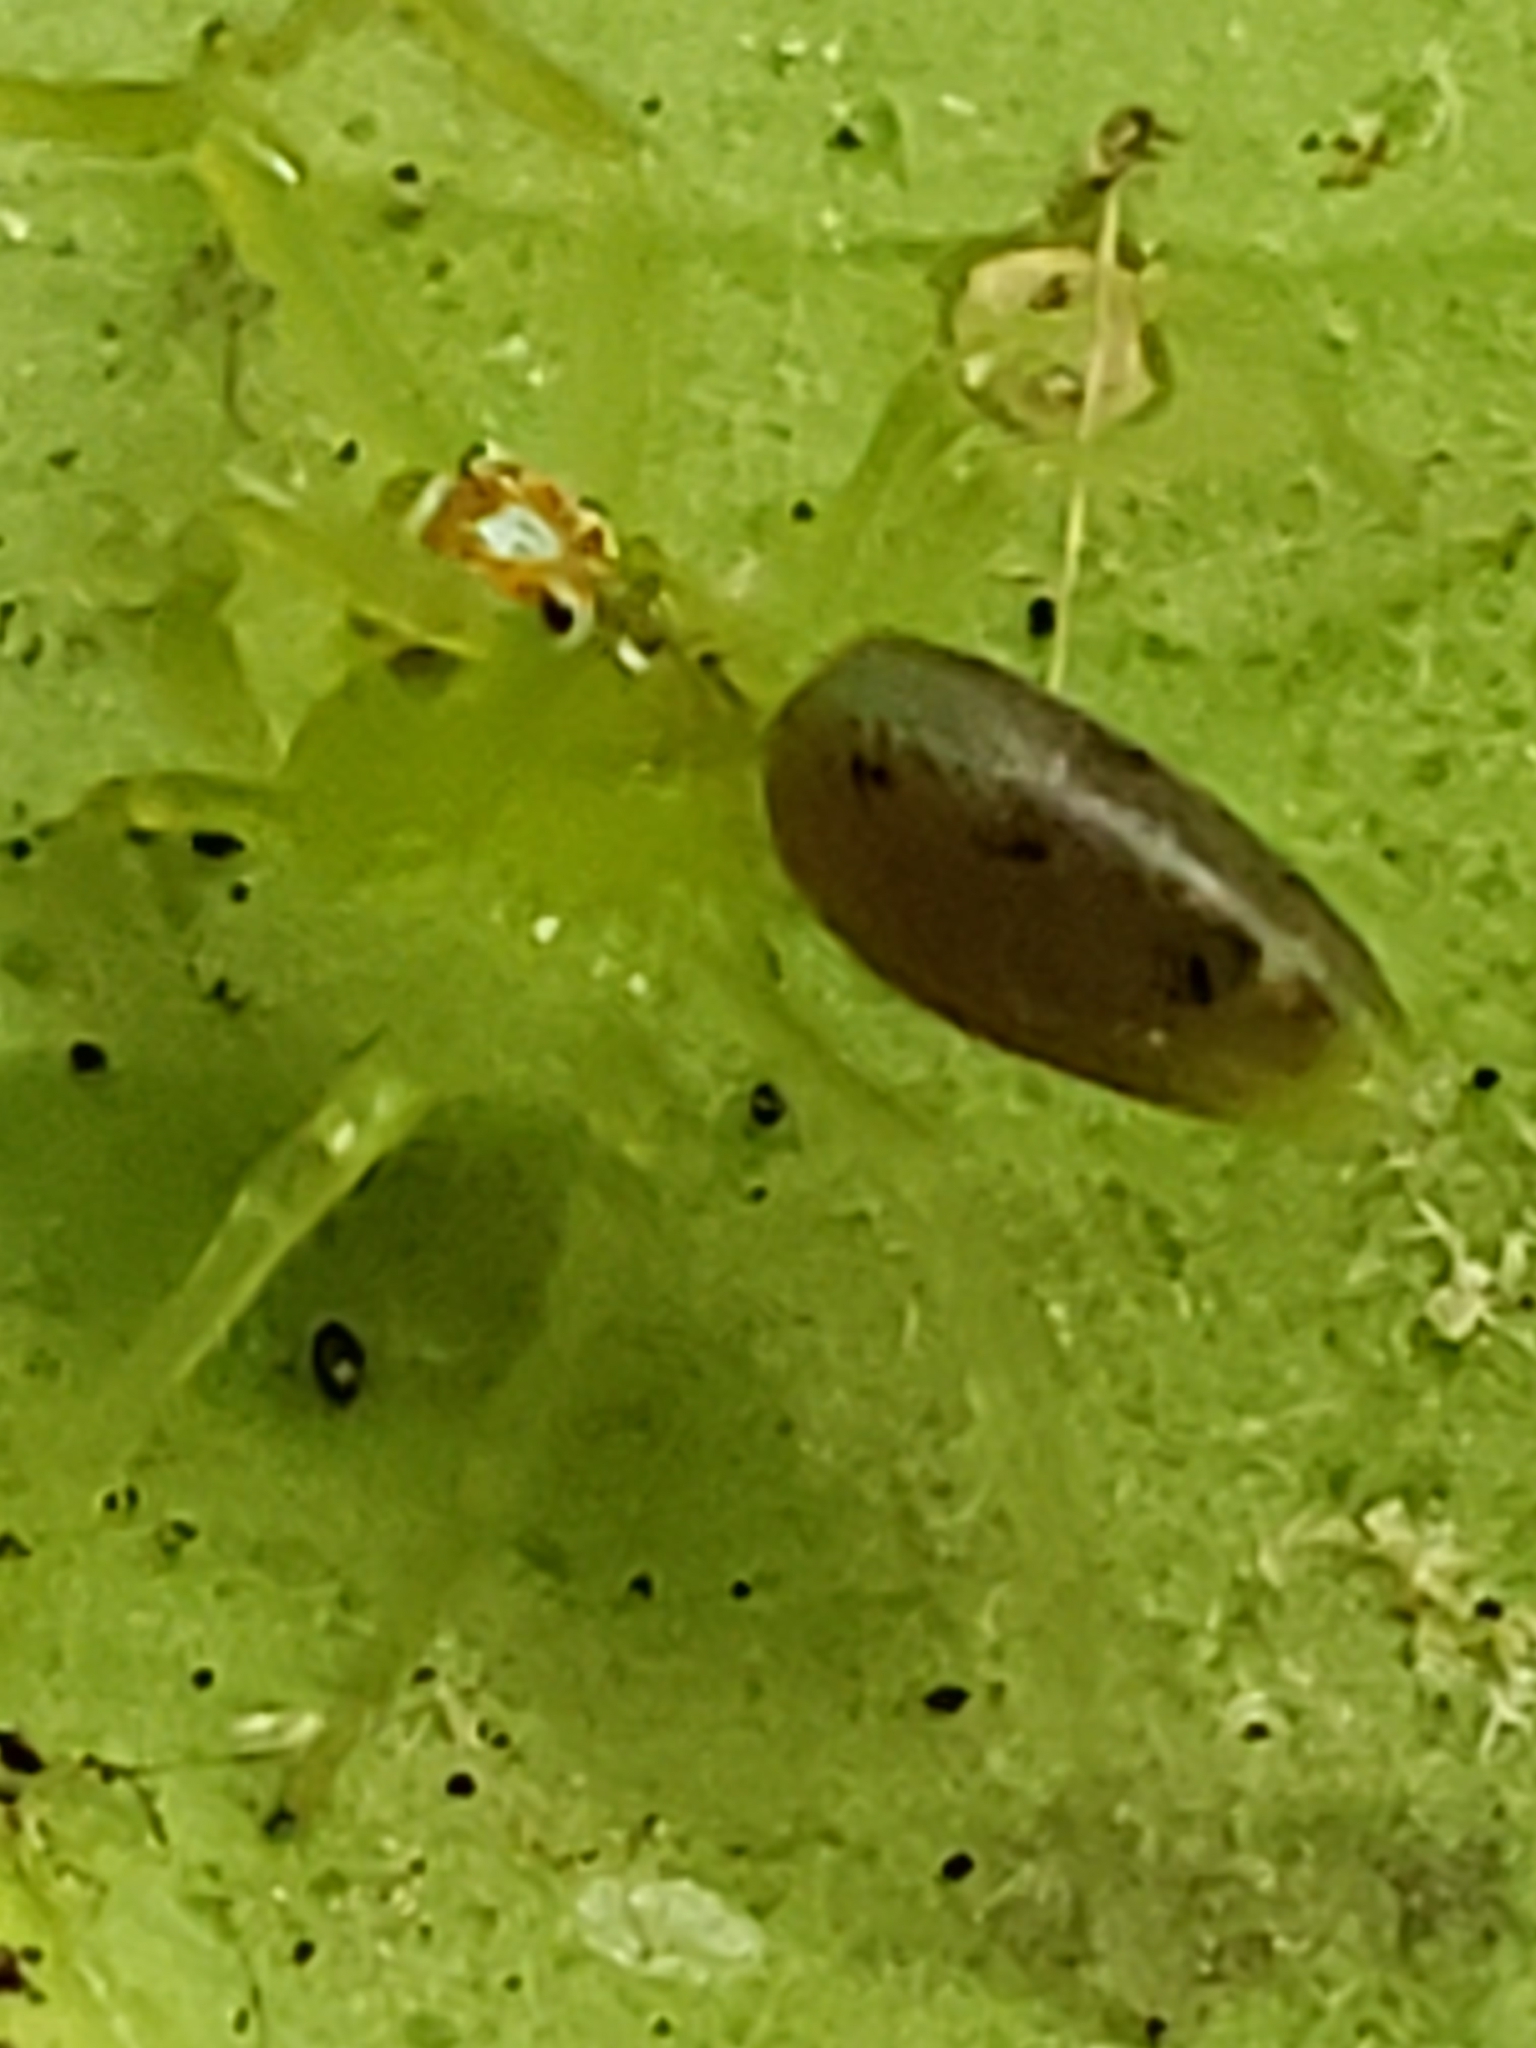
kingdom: Animalia
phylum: Arthropoda
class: Arachnida
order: Araneae
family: Salticidae
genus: Lyssomanes
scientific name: Lyssomanes viridis
